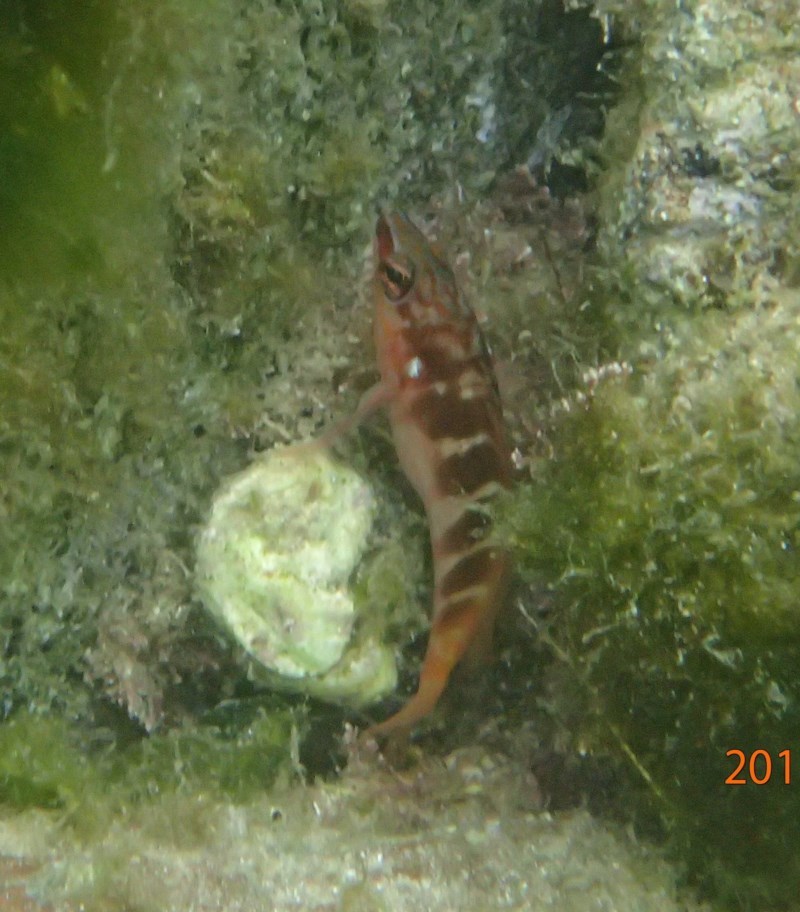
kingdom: Animalia
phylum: Chordata
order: Perciformes
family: Serranidae
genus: Hypoplectrodes
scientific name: Hypoplectrodes maccullochi
